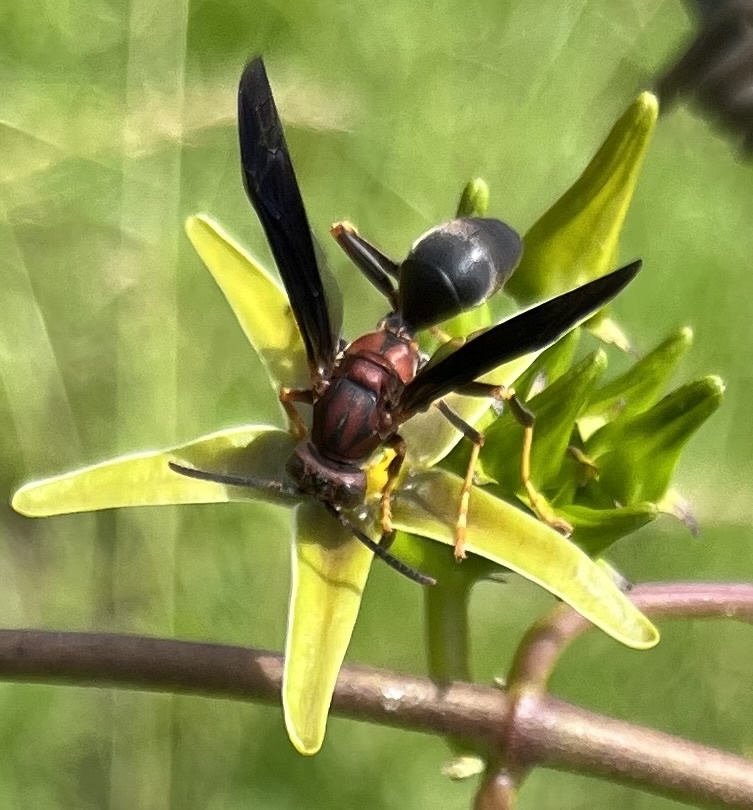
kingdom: Animalia
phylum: Arthropoda
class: Insecta
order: Hymenoptera
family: Eumenidae
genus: Polistes
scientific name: Polistes metricus
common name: Metric paper wasp
